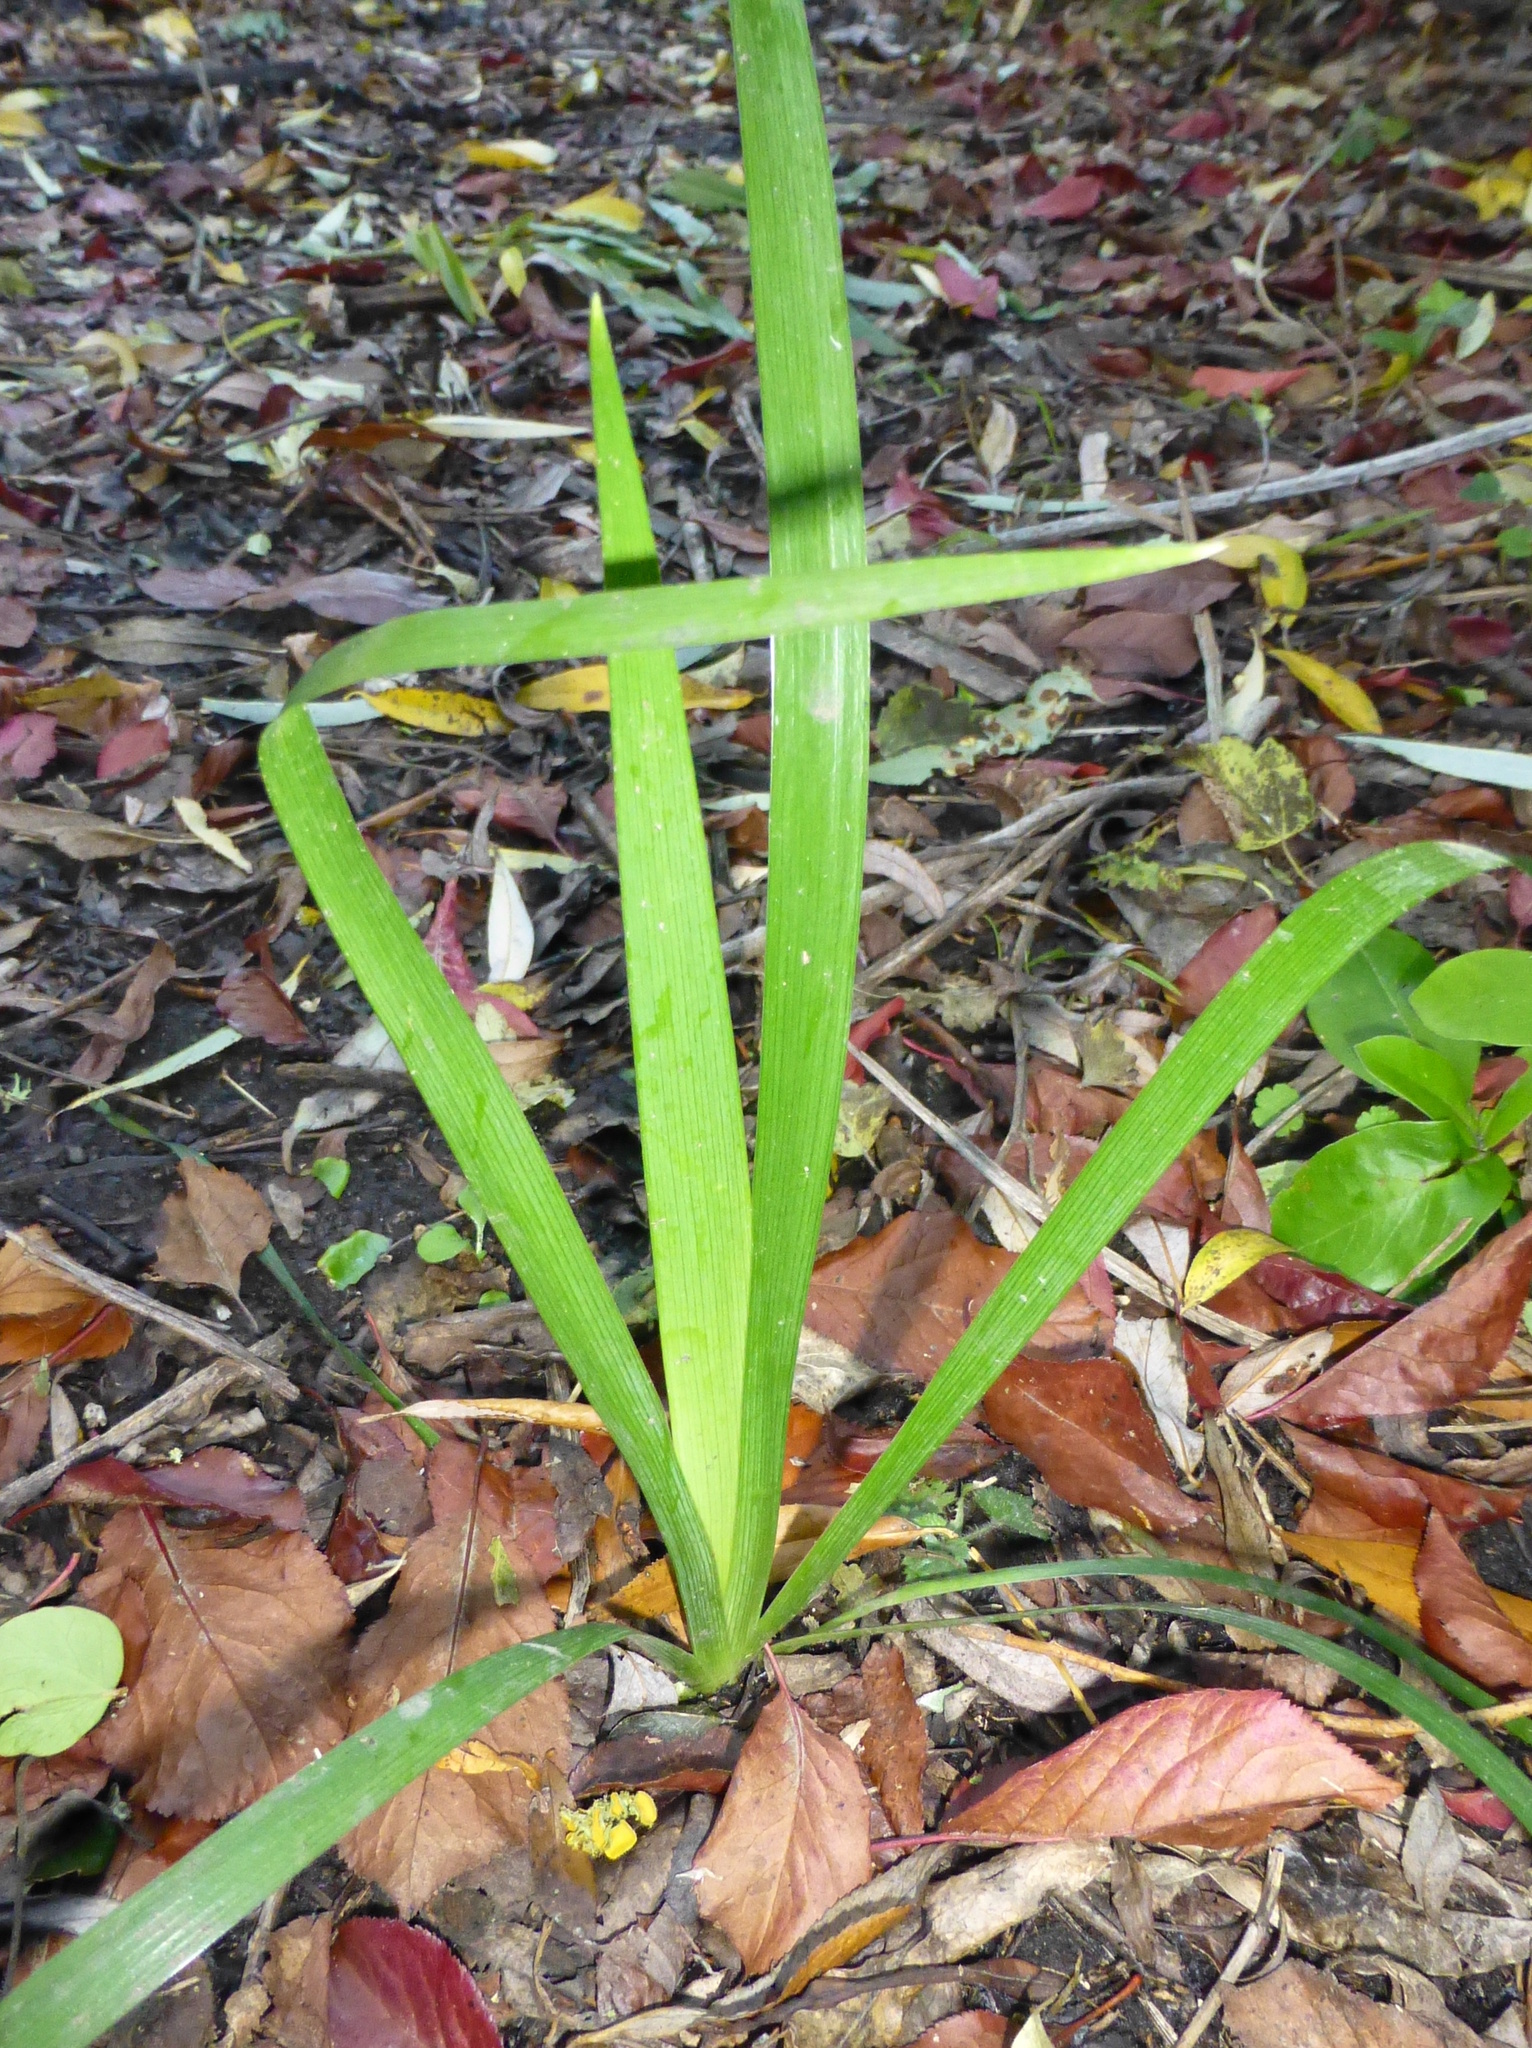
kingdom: Plantae
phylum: Tracheophyta
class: Liliopsida
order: Asparagales
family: Iridaceae
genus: Iris
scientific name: Iris pseudacorus
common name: Yellow flag
